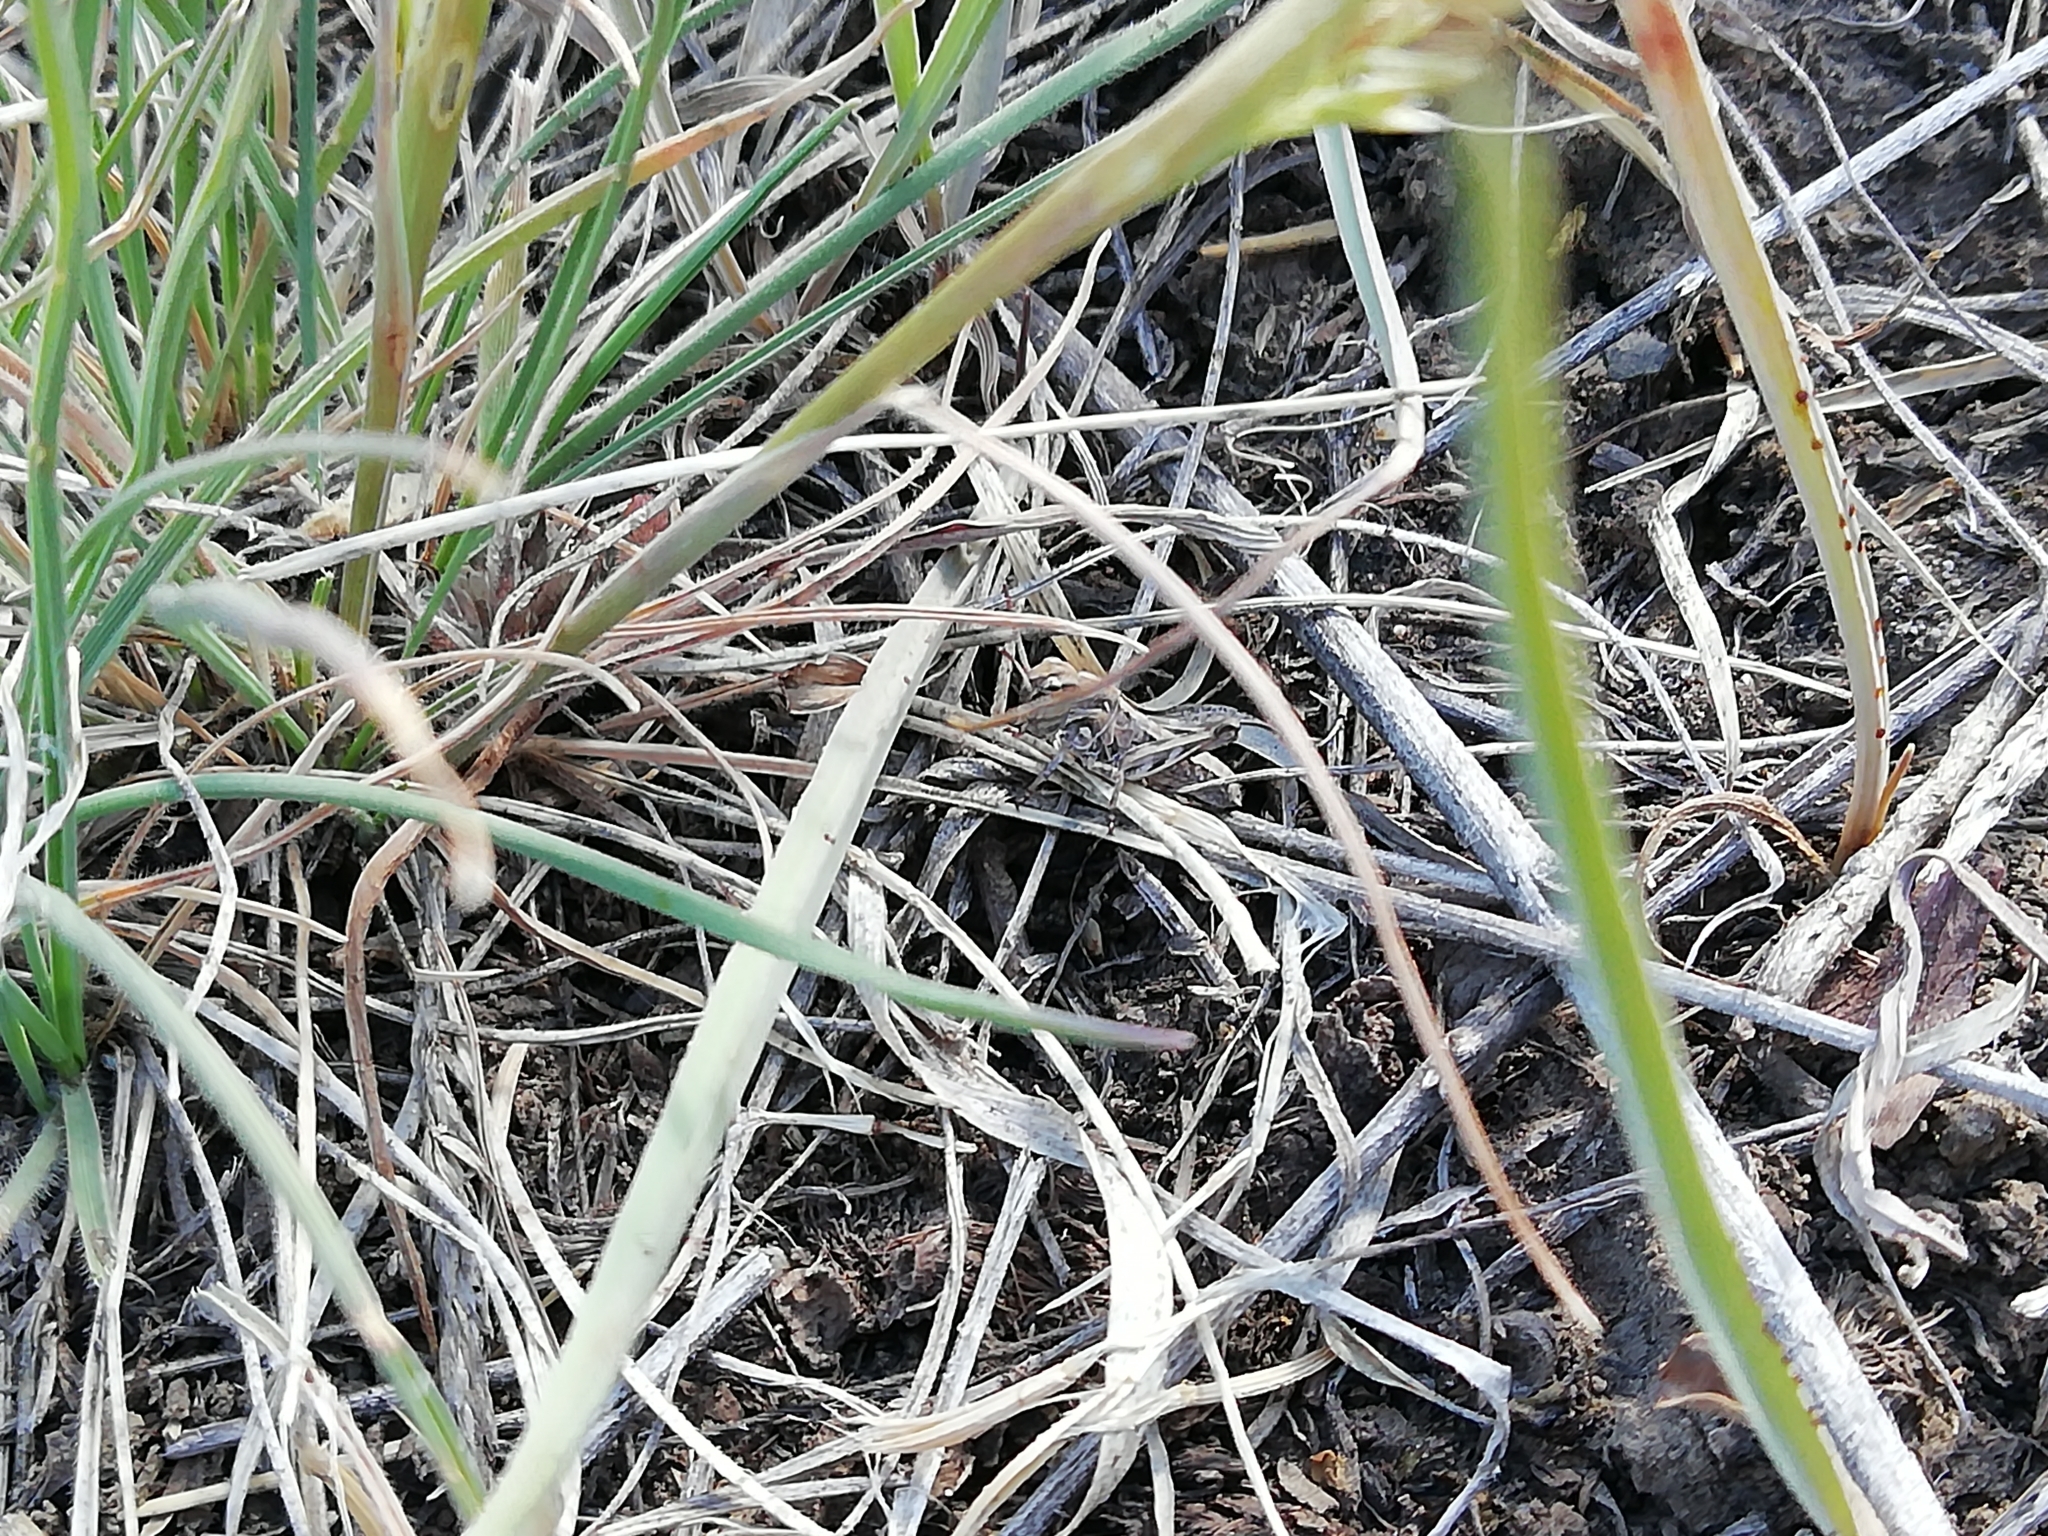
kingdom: Animalia
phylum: Arthropoda
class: Insecta
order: Orthoptera
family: Acrididae
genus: Oedaleus
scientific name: Oedaleus decorus
